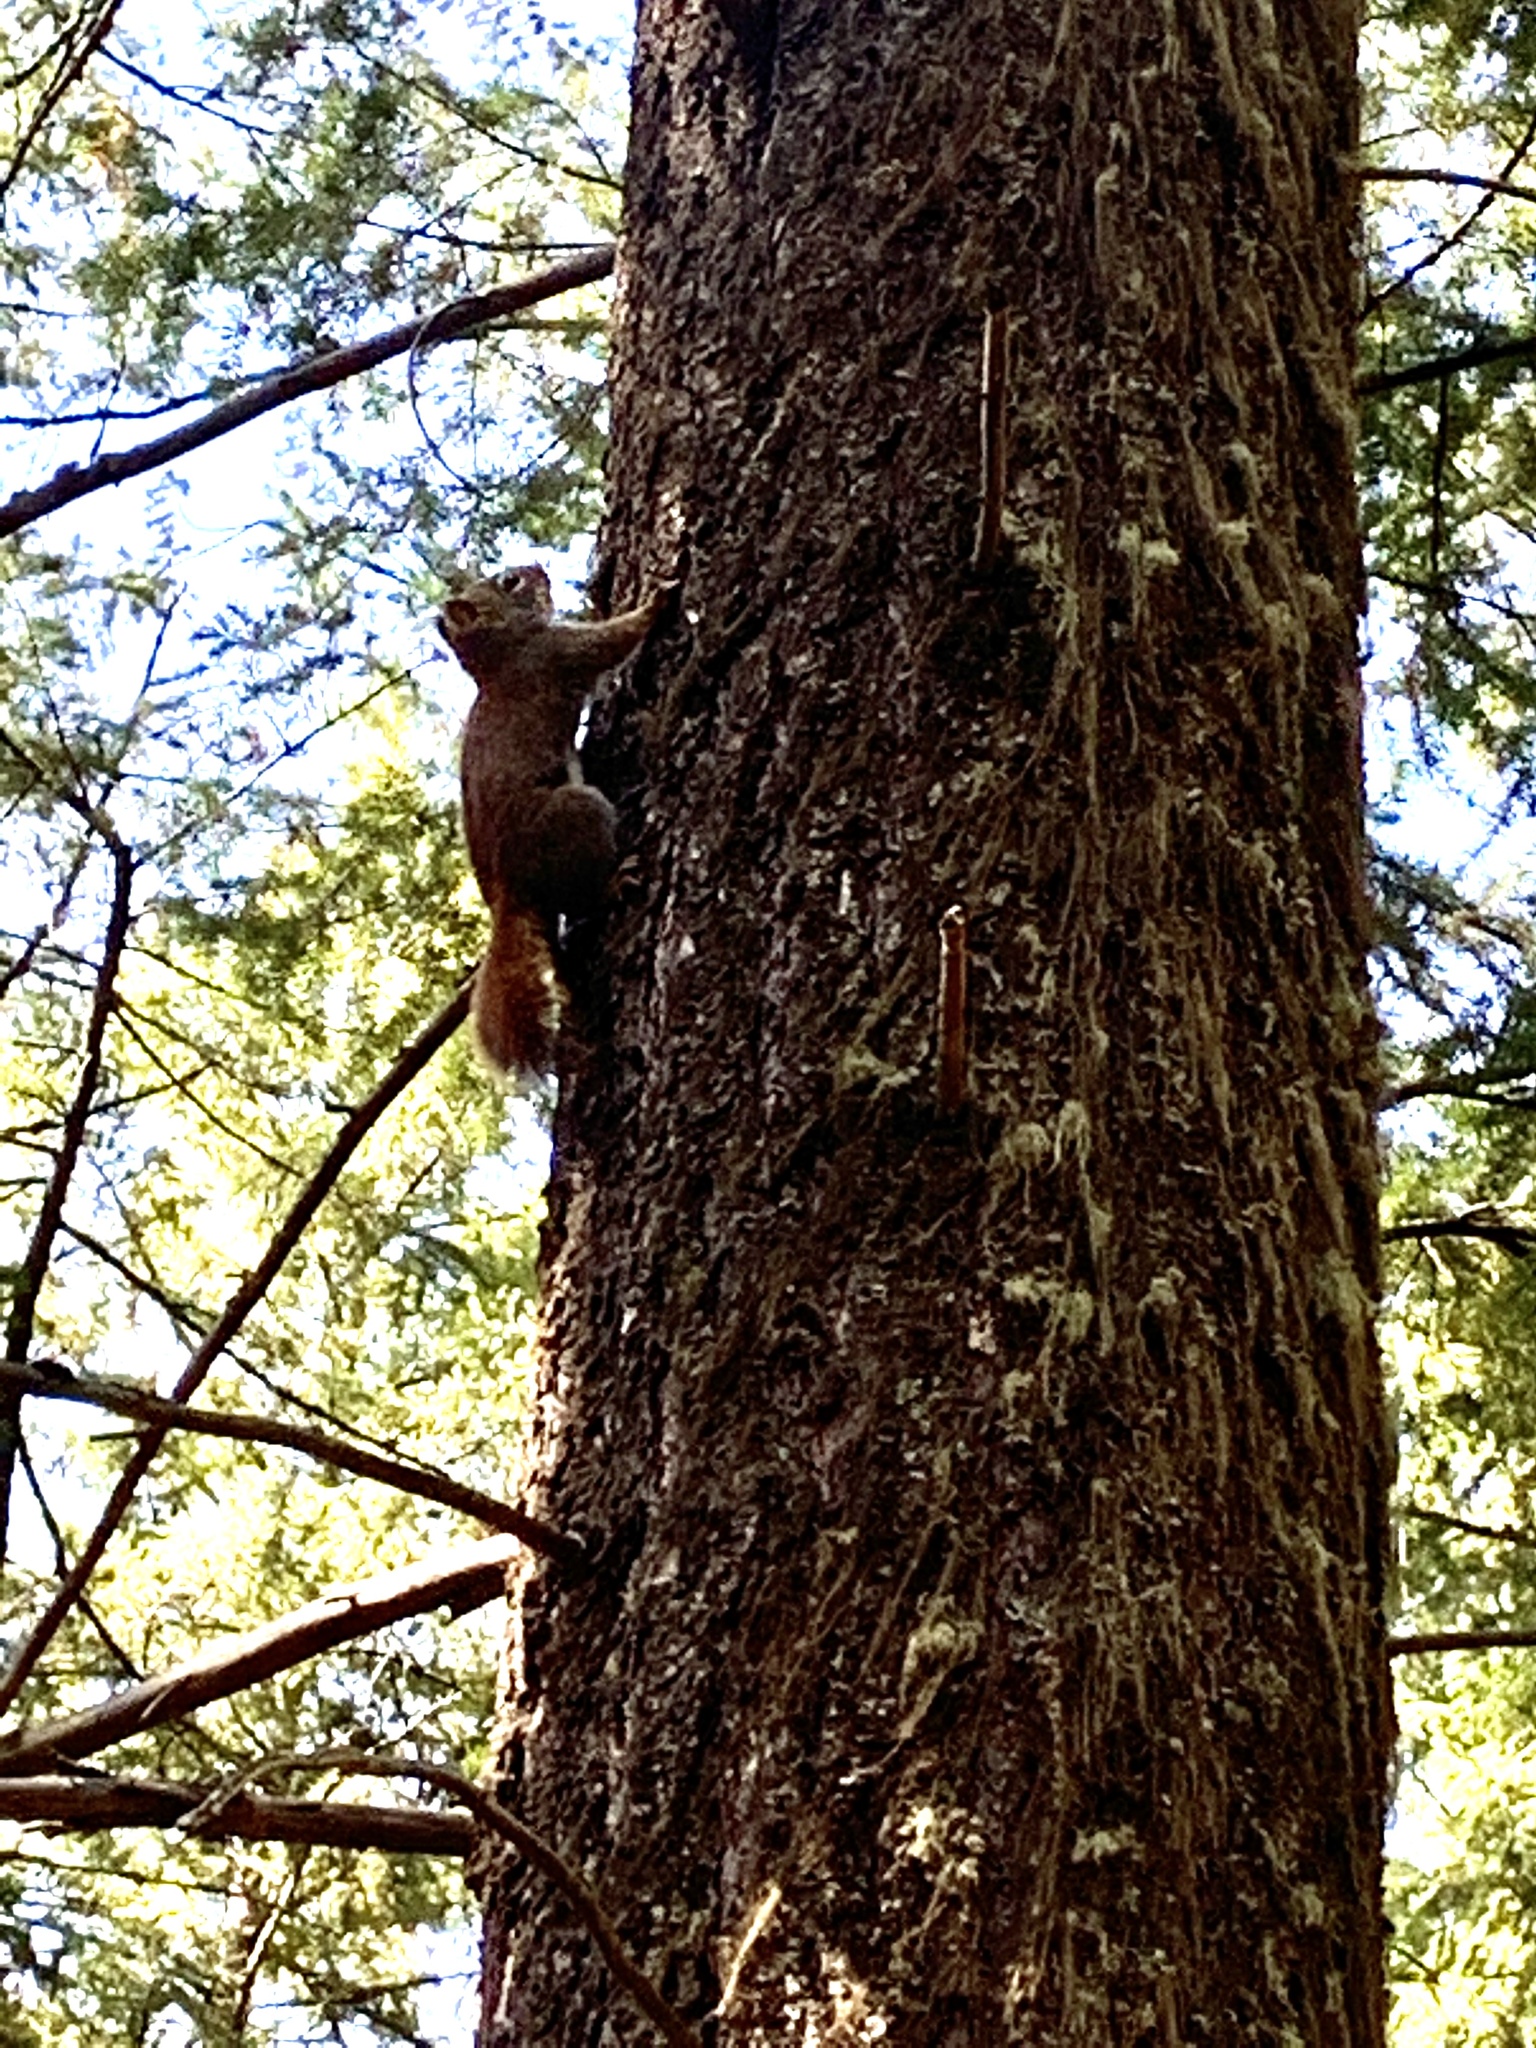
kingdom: Animalia
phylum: Chordata
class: Mammalia
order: Rodentia
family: Sciuridae
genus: Tamiasciurus
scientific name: Tamiasciurus hudsonicus
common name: Red squirrel
